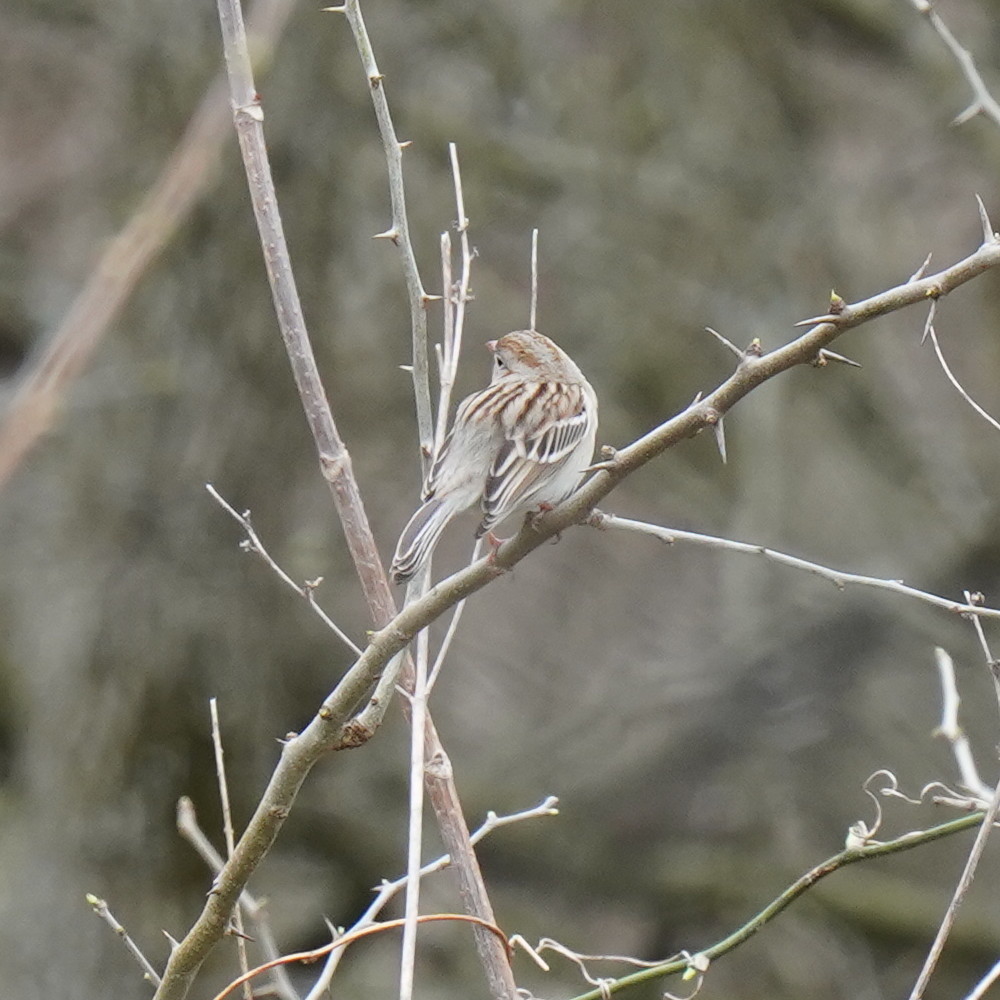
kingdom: Animalia
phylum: Chordata
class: Aves
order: Passeriformes
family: Passerellidae
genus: Spizella
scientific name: Spizella pusilla
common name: Field sparrow
